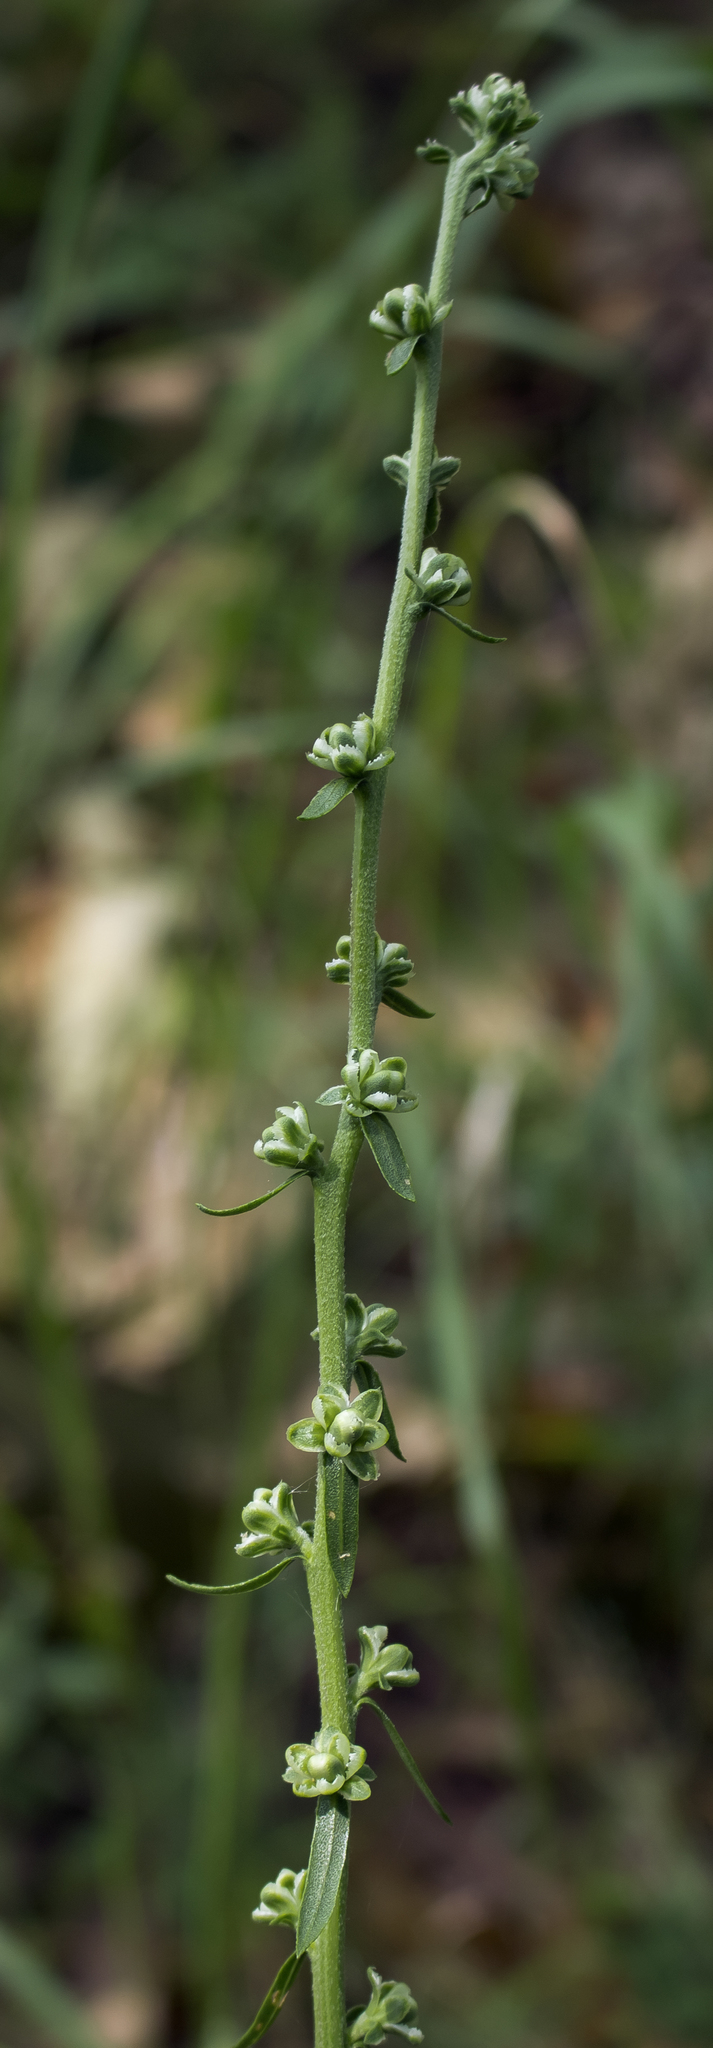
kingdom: Plantae
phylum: Tracheophyta
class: Magnoliopsida
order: Asterales
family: Asteraceae
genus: Liatris
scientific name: Liatris aspera
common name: Lacerate blazing-star
